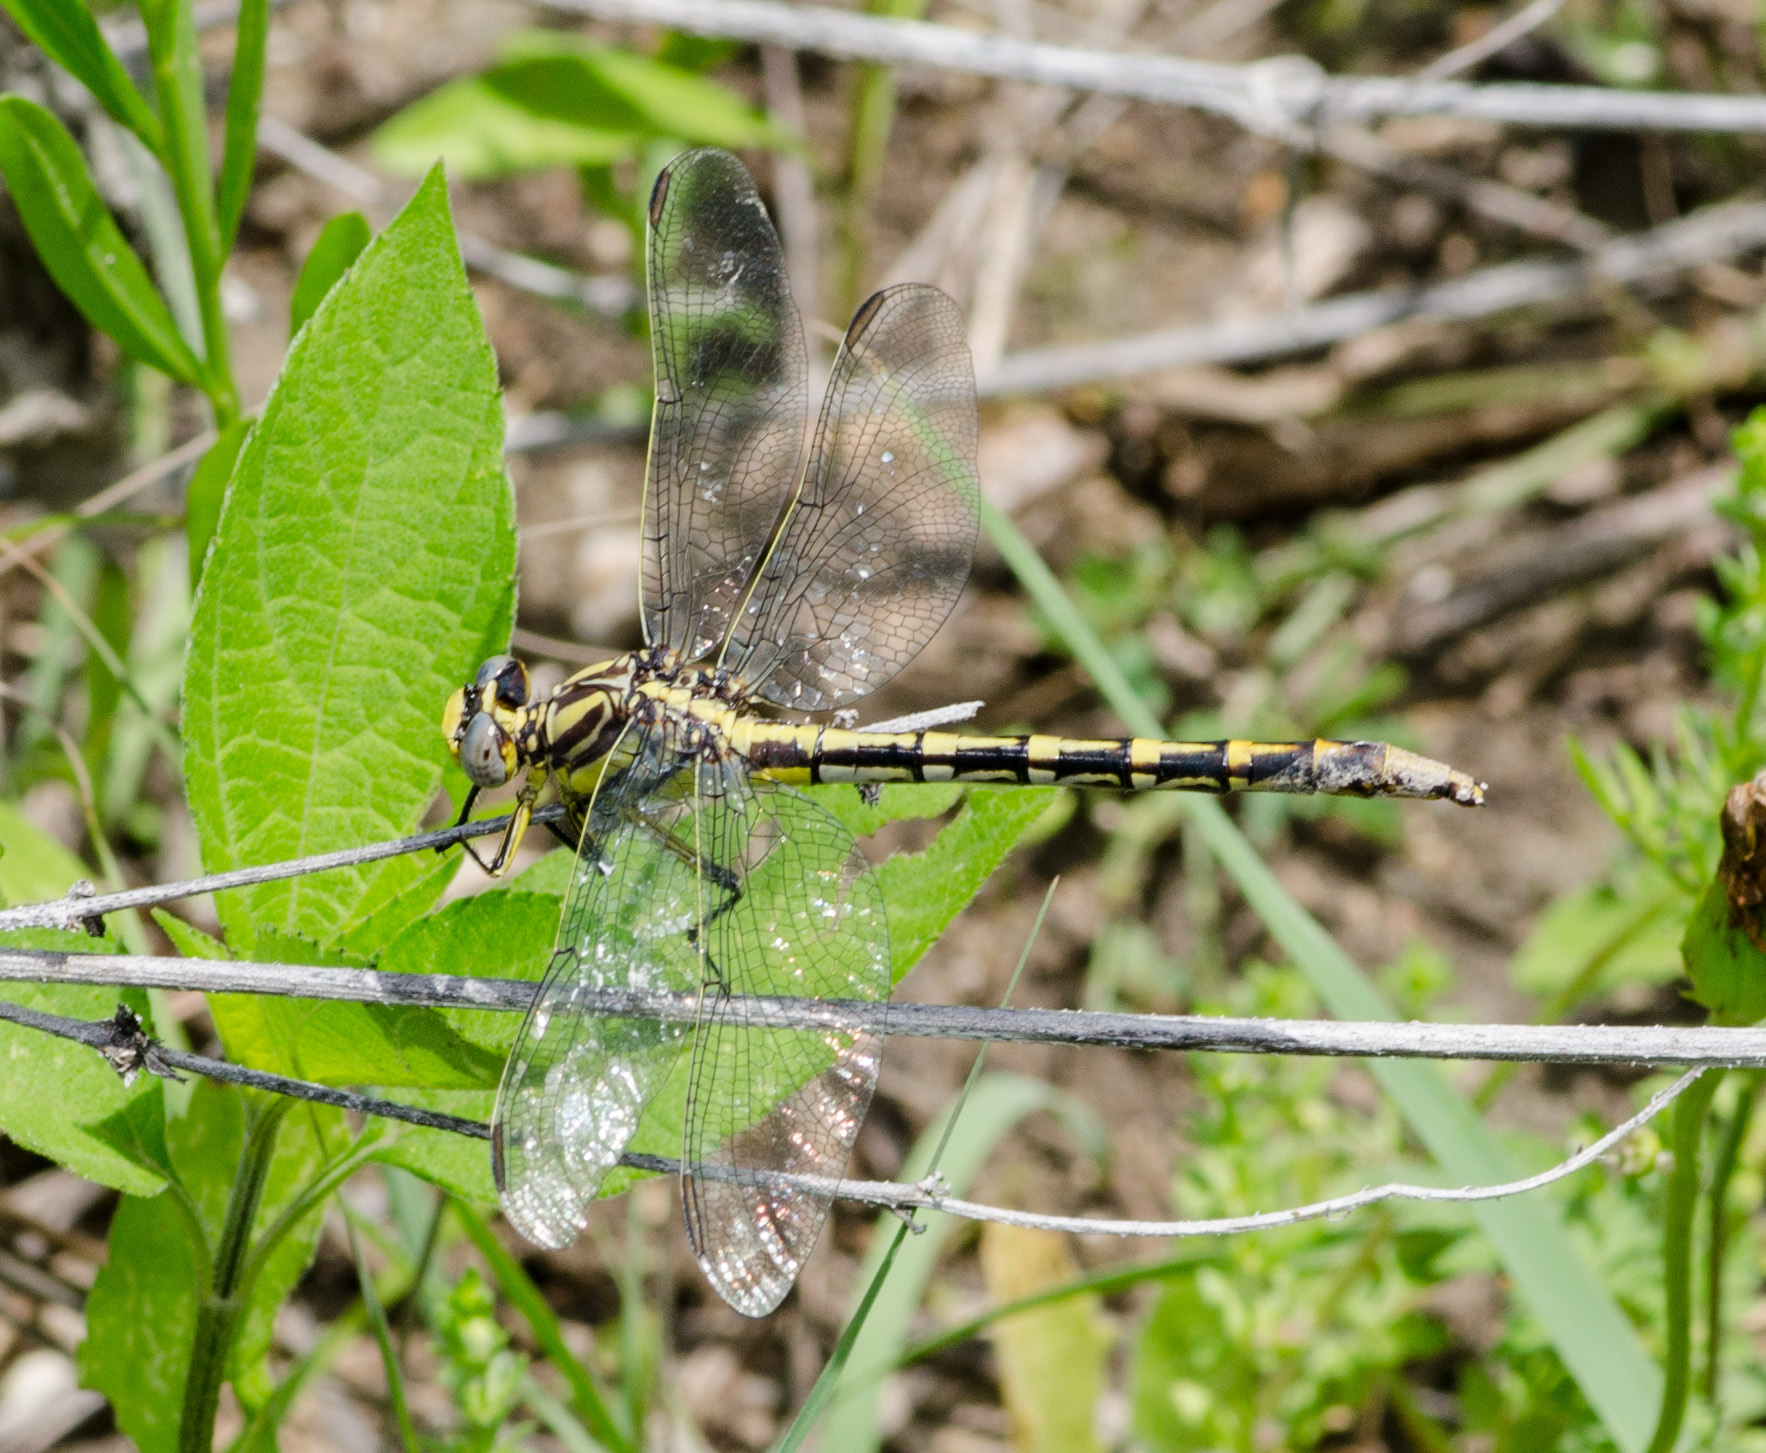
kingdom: Animalia
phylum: Arthropoda
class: Insecta
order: Odonata
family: Gomphidae
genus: Phanogomphus
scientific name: Phanogomphus militaris
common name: Sulphur-tipped clubtail
